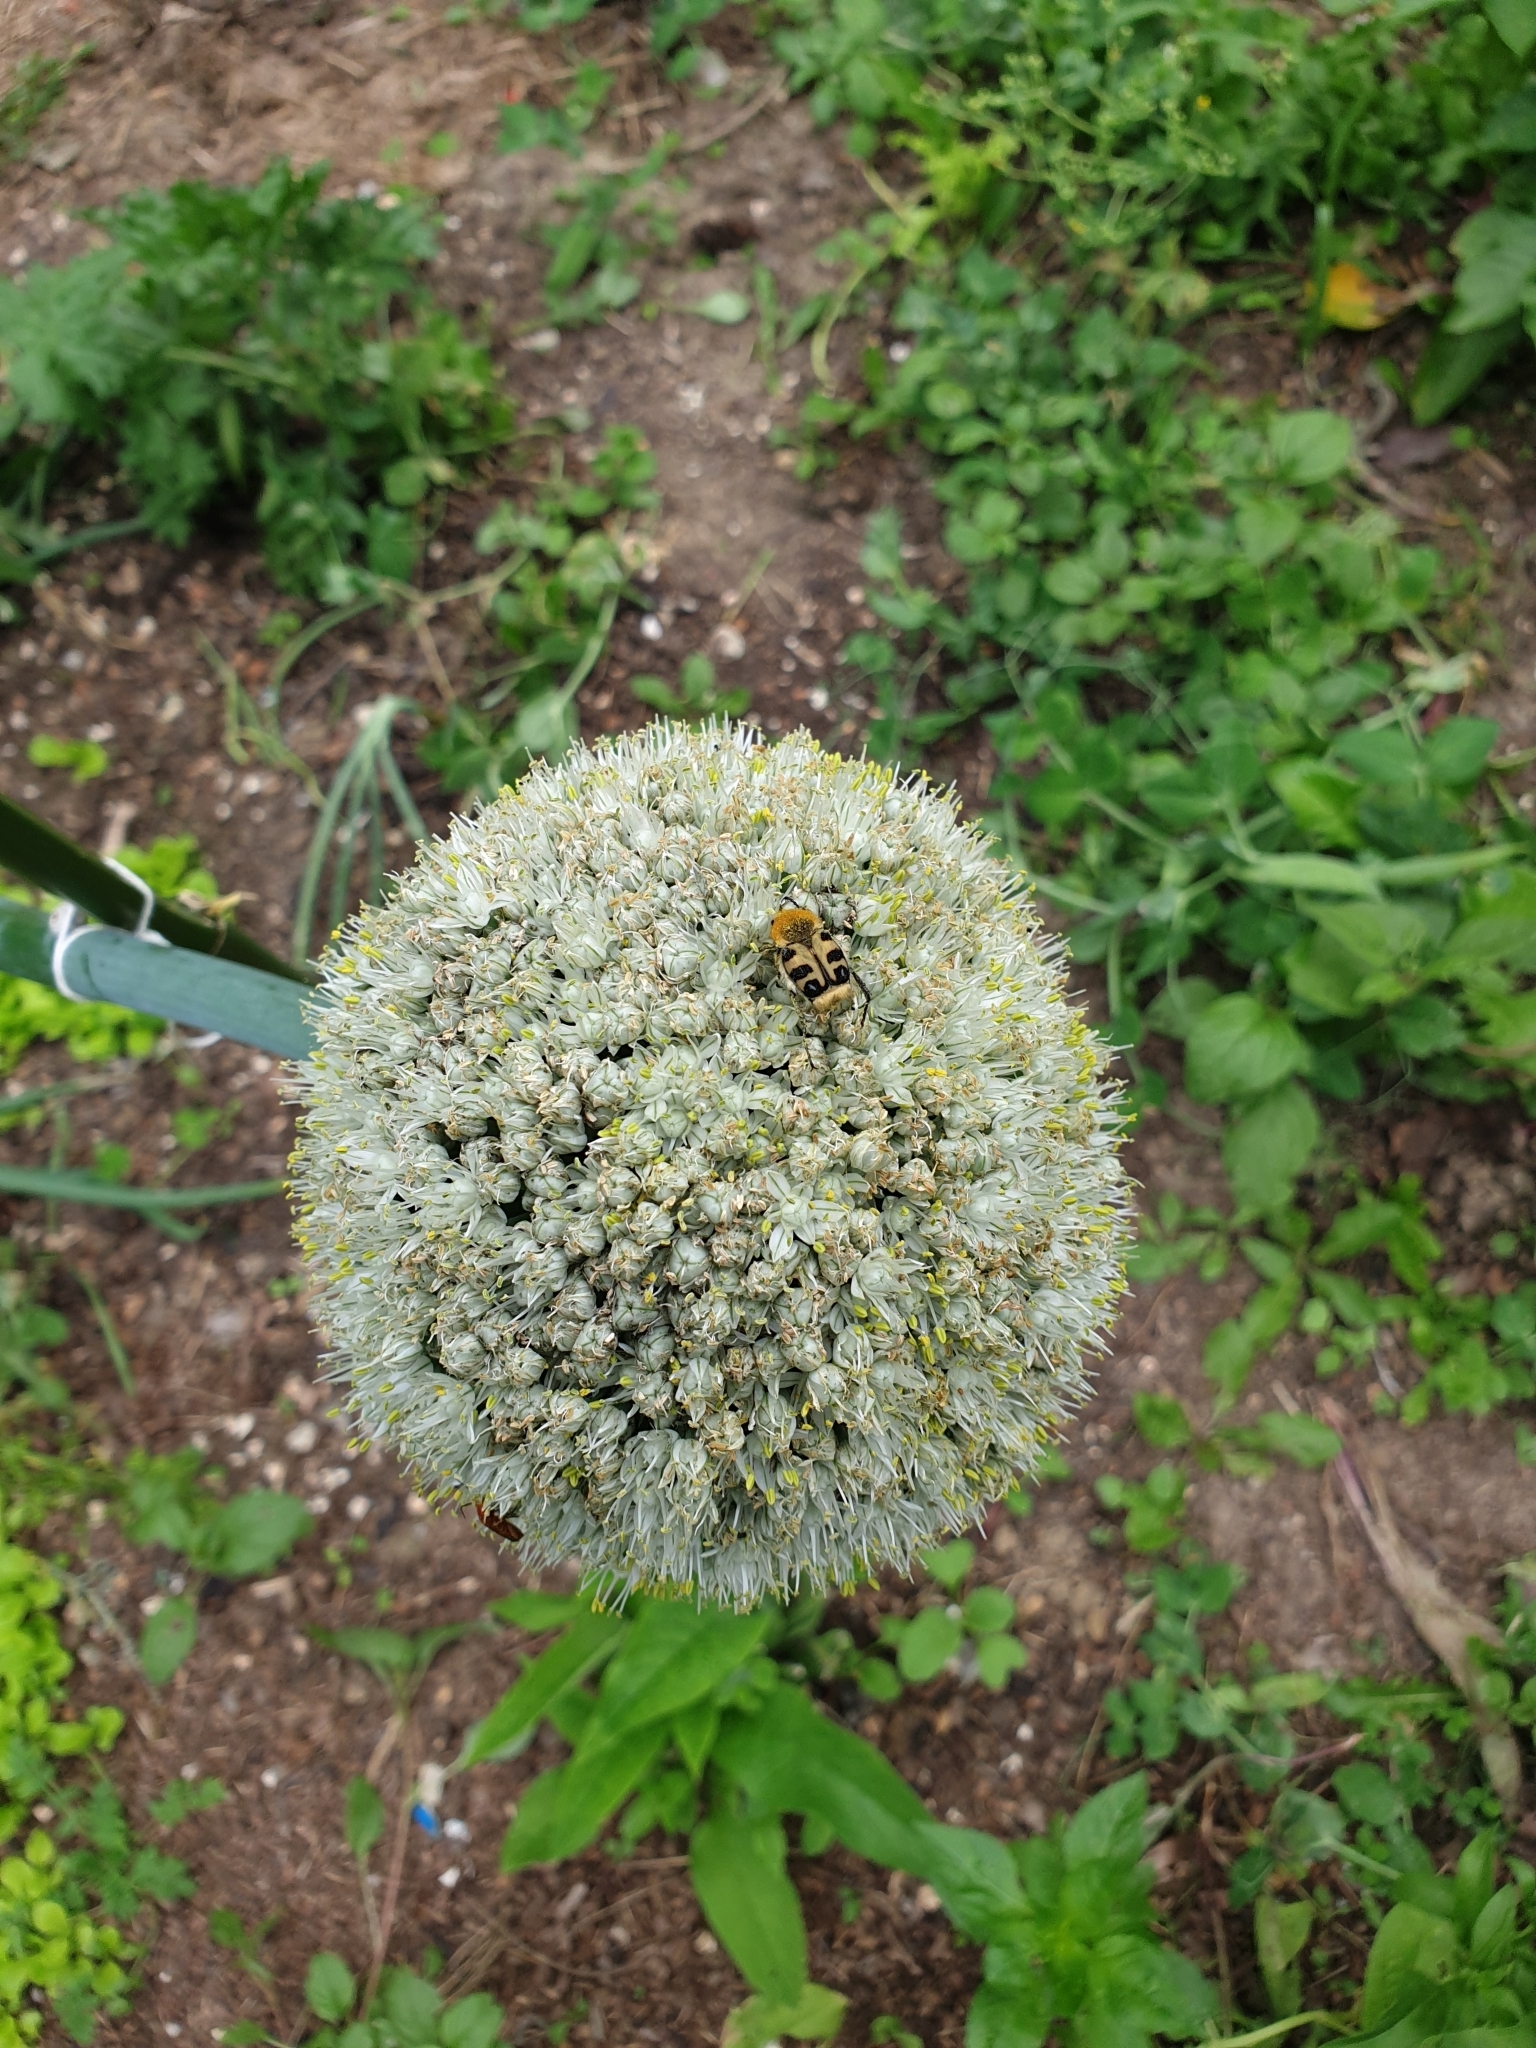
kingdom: Animalia
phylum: Arthropoda
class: Insecta
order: Coleoptera
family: Scarabaeidae
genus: Trichius
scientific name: Trichius gallicus
